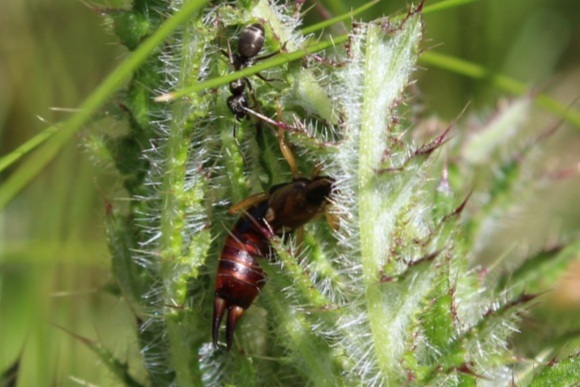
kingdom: Animalia
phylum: Arthropoda
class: Insecta
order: Dermaptera
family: Forficulidae
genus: Forficula
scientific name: Forficula
